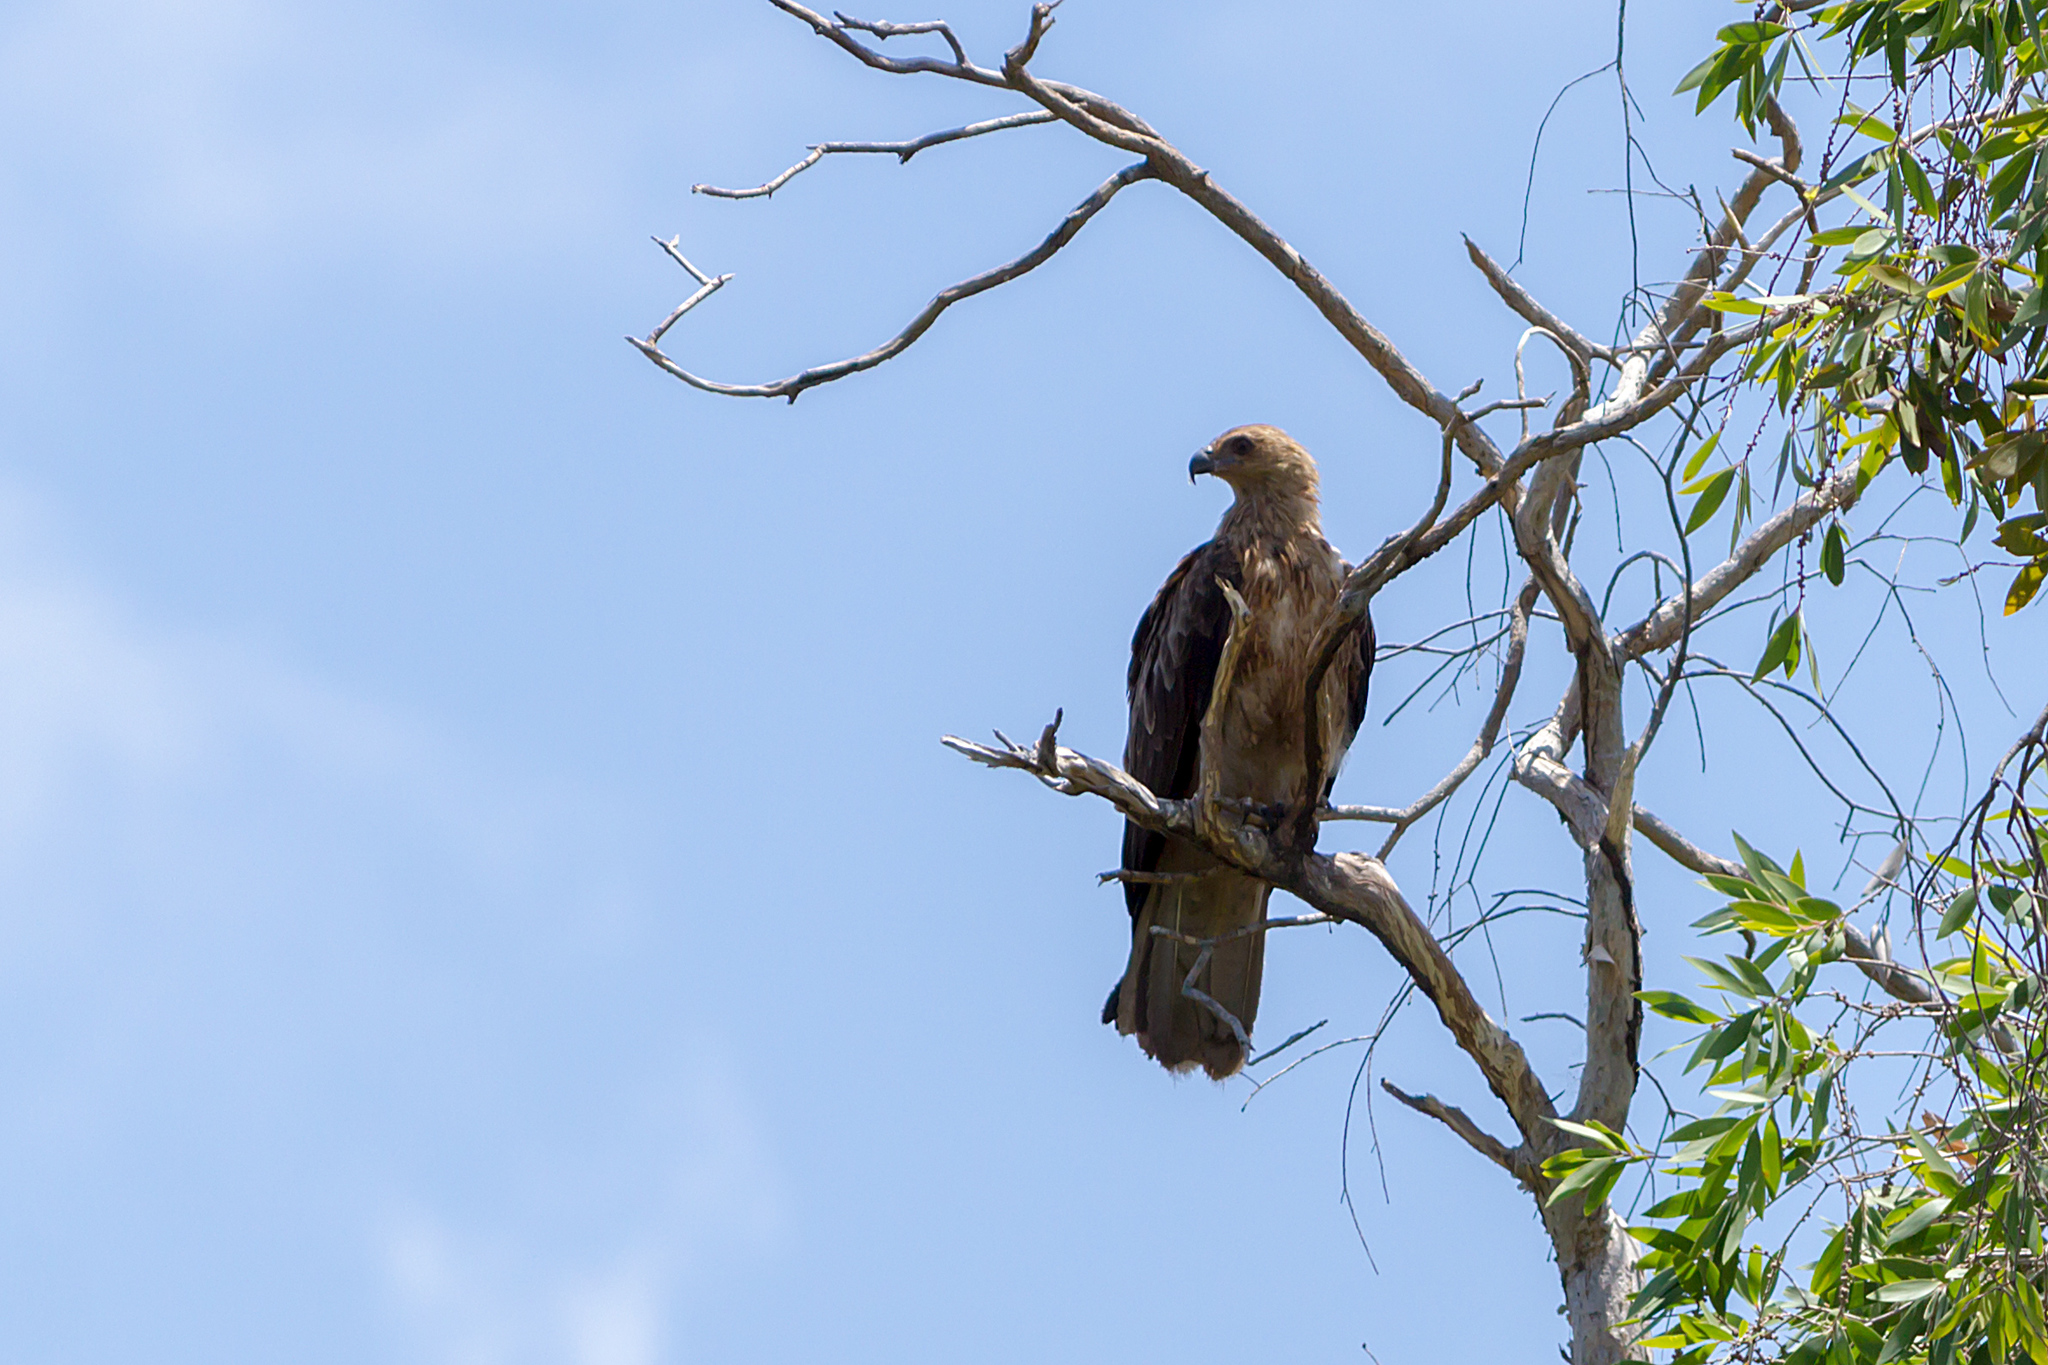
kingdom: Animalia
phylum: Chordata
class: Aves
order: Accipitriformes
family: Accipitridae
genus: Haliastur
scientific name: Haliastur sphenurus
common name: Whistling kite
